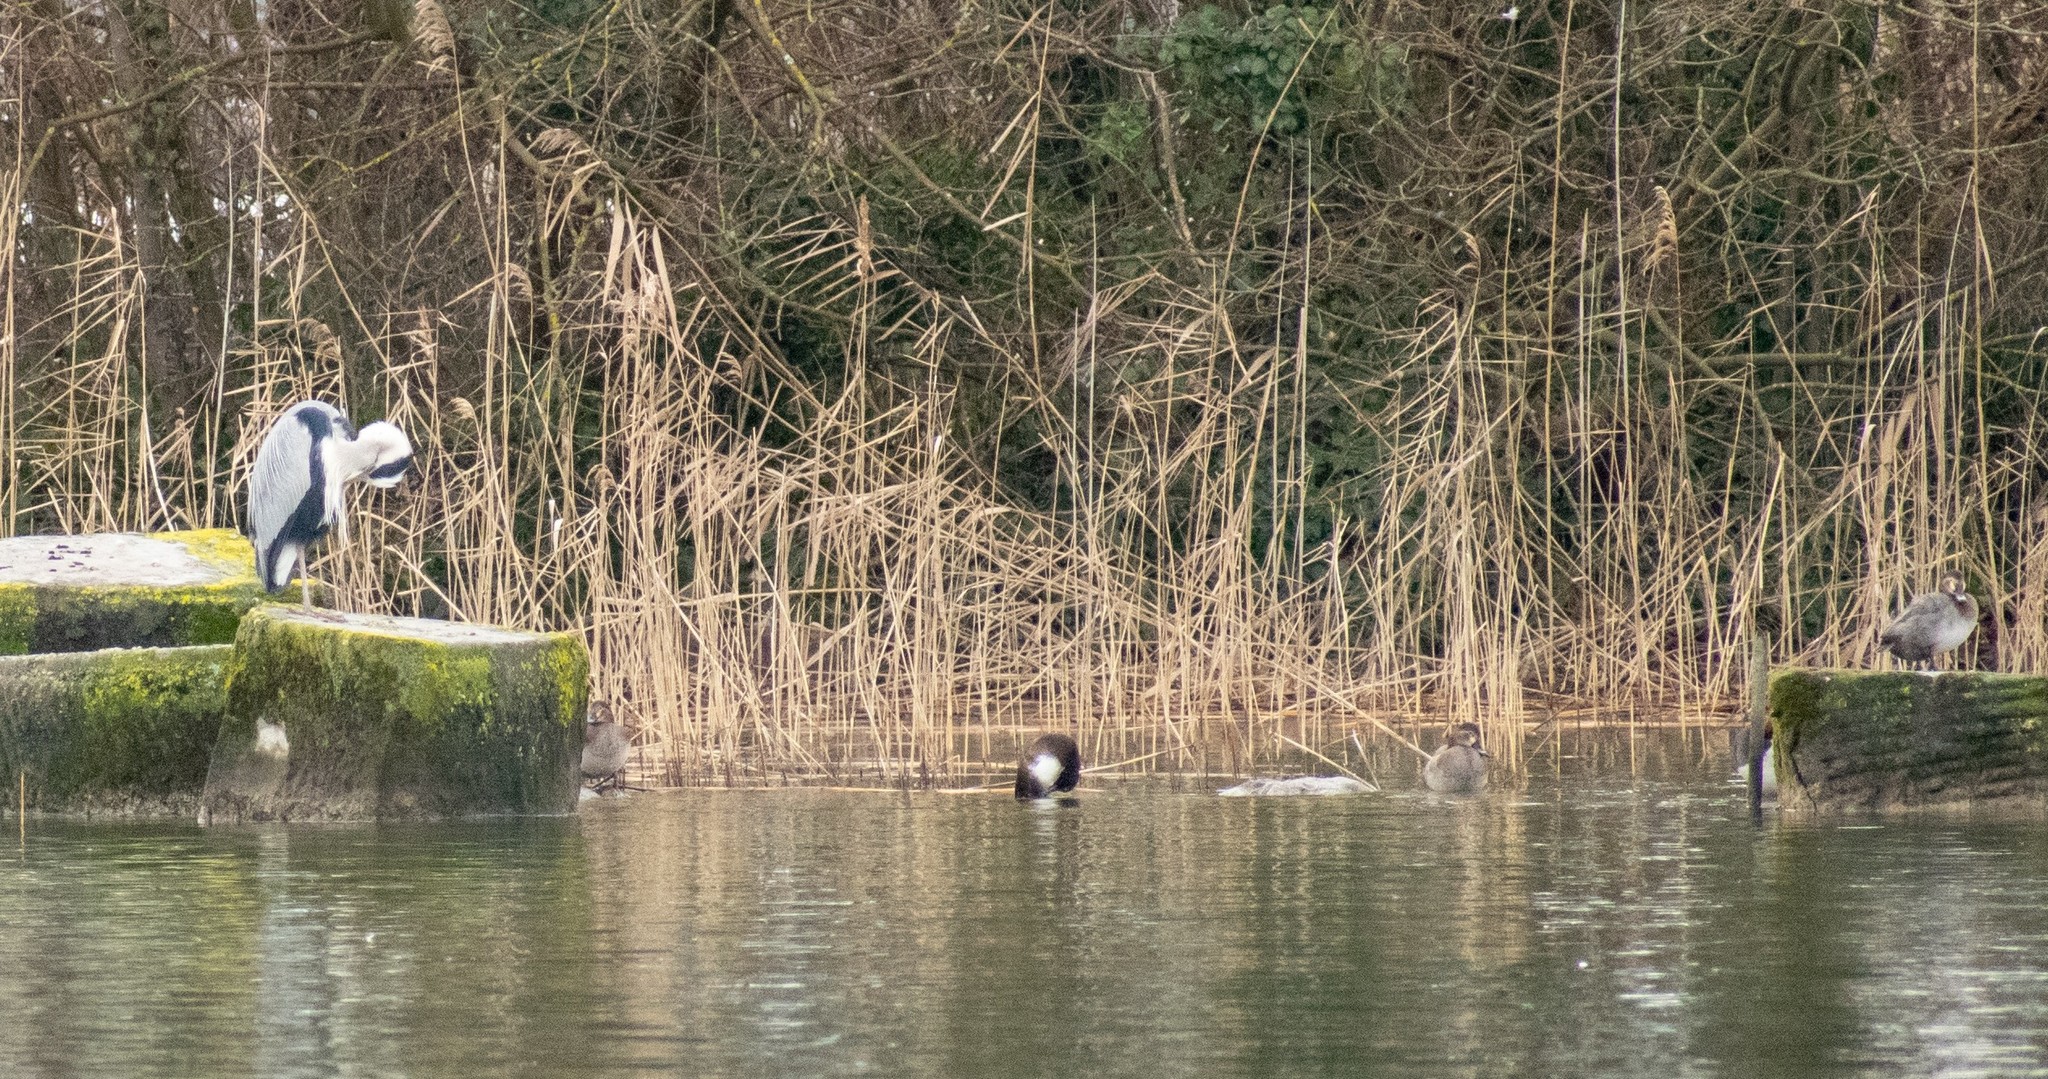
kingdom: Animalia
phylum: Chordata
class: Aves
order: Anseriformes
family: Anatidae
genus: Aythya
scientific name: Aythya fuligula
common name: Tufted duck
